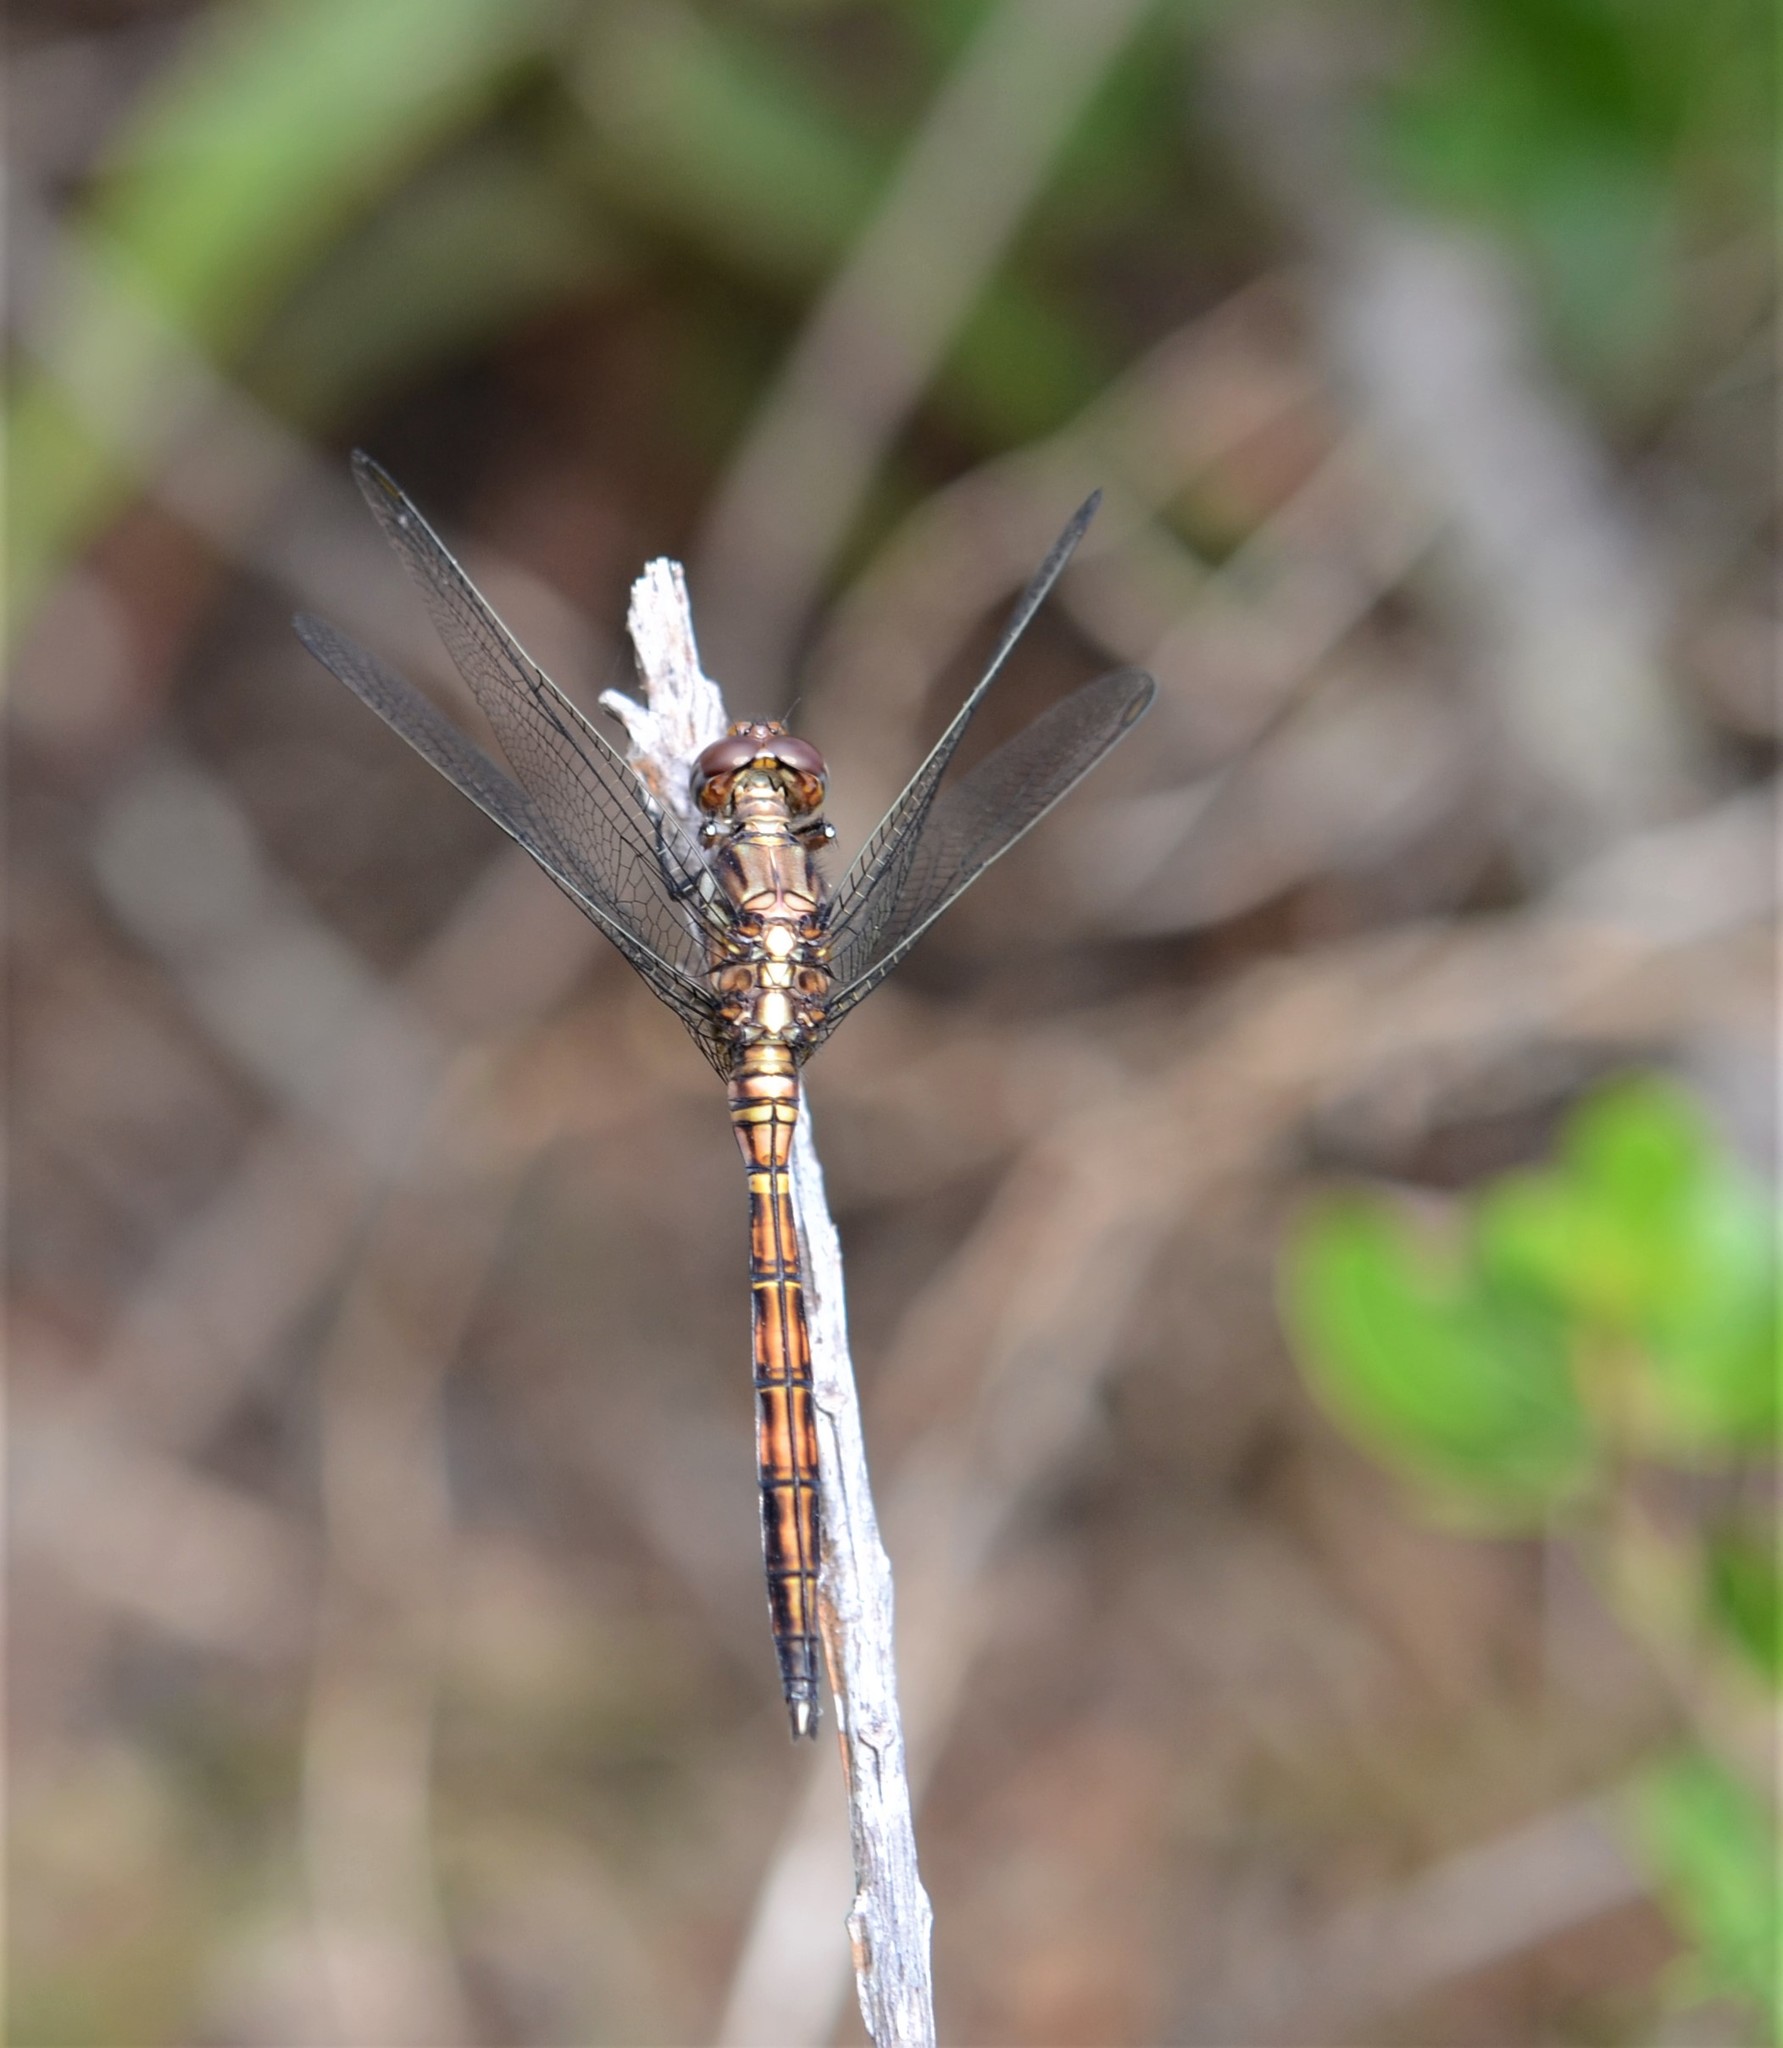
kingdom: Animalia
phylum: Arthropoda
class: Insecta
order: Odonata
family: Libellulidae
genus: Orthetrum
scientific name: Orthetrum julia
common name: Julia skimmer
